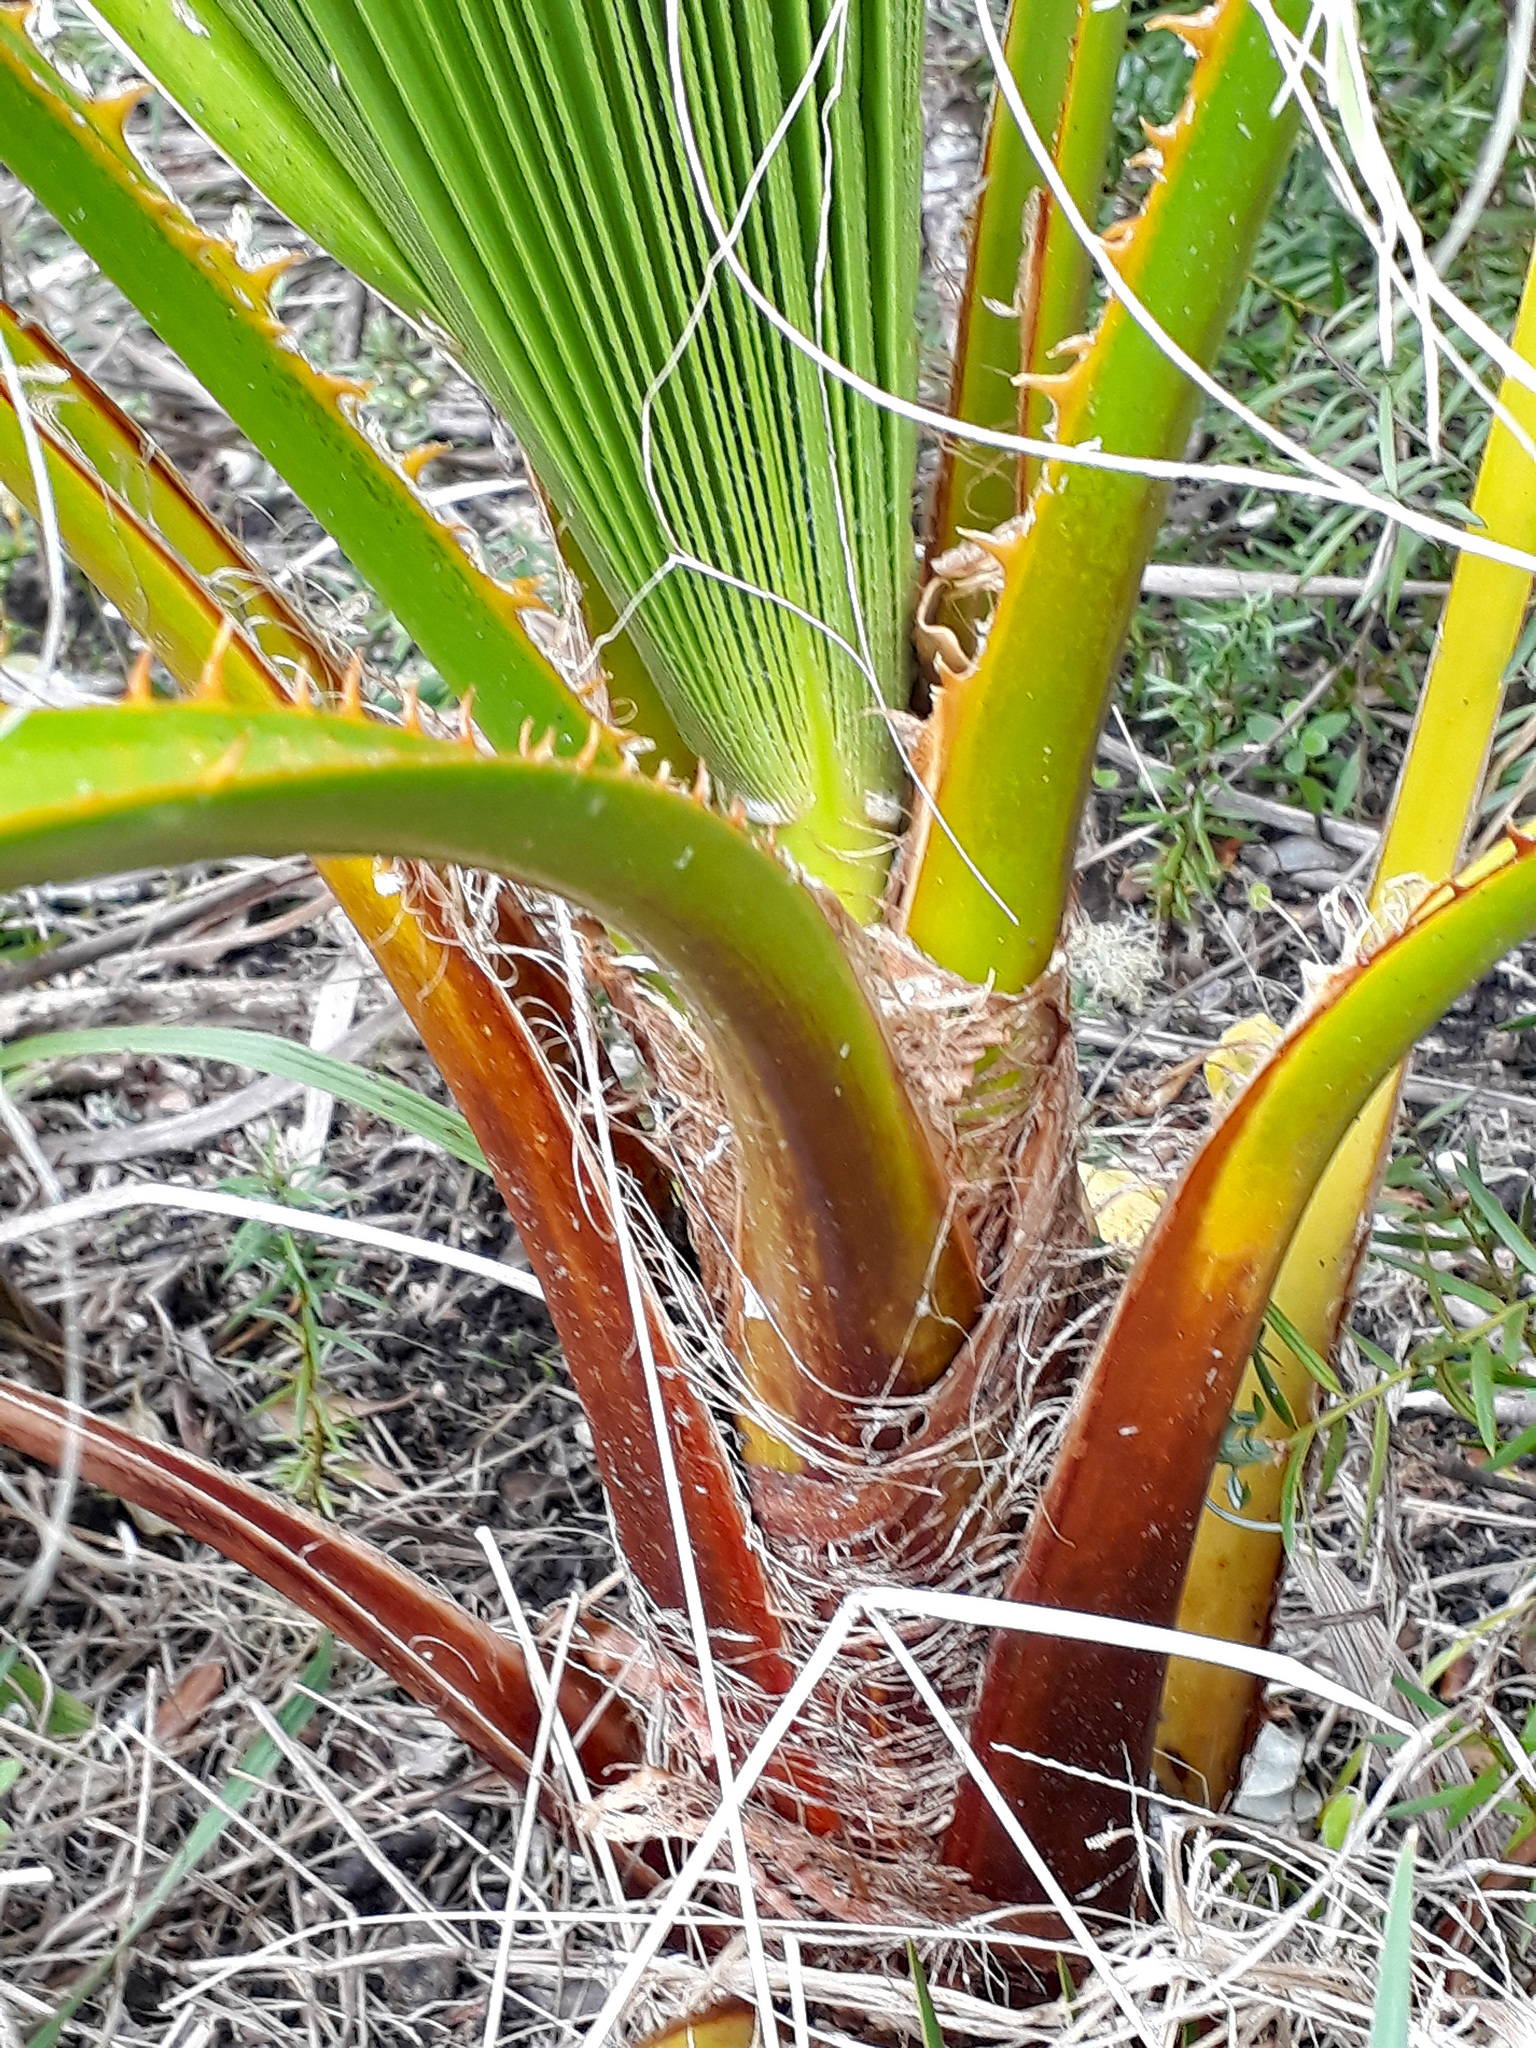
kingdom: Plantae
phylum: Tracheophyta
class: Liliopsida
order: Arecales
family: Arecaceae
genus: Washingtonia
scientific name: Washingtonia robusta
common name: Mexican fan palm
